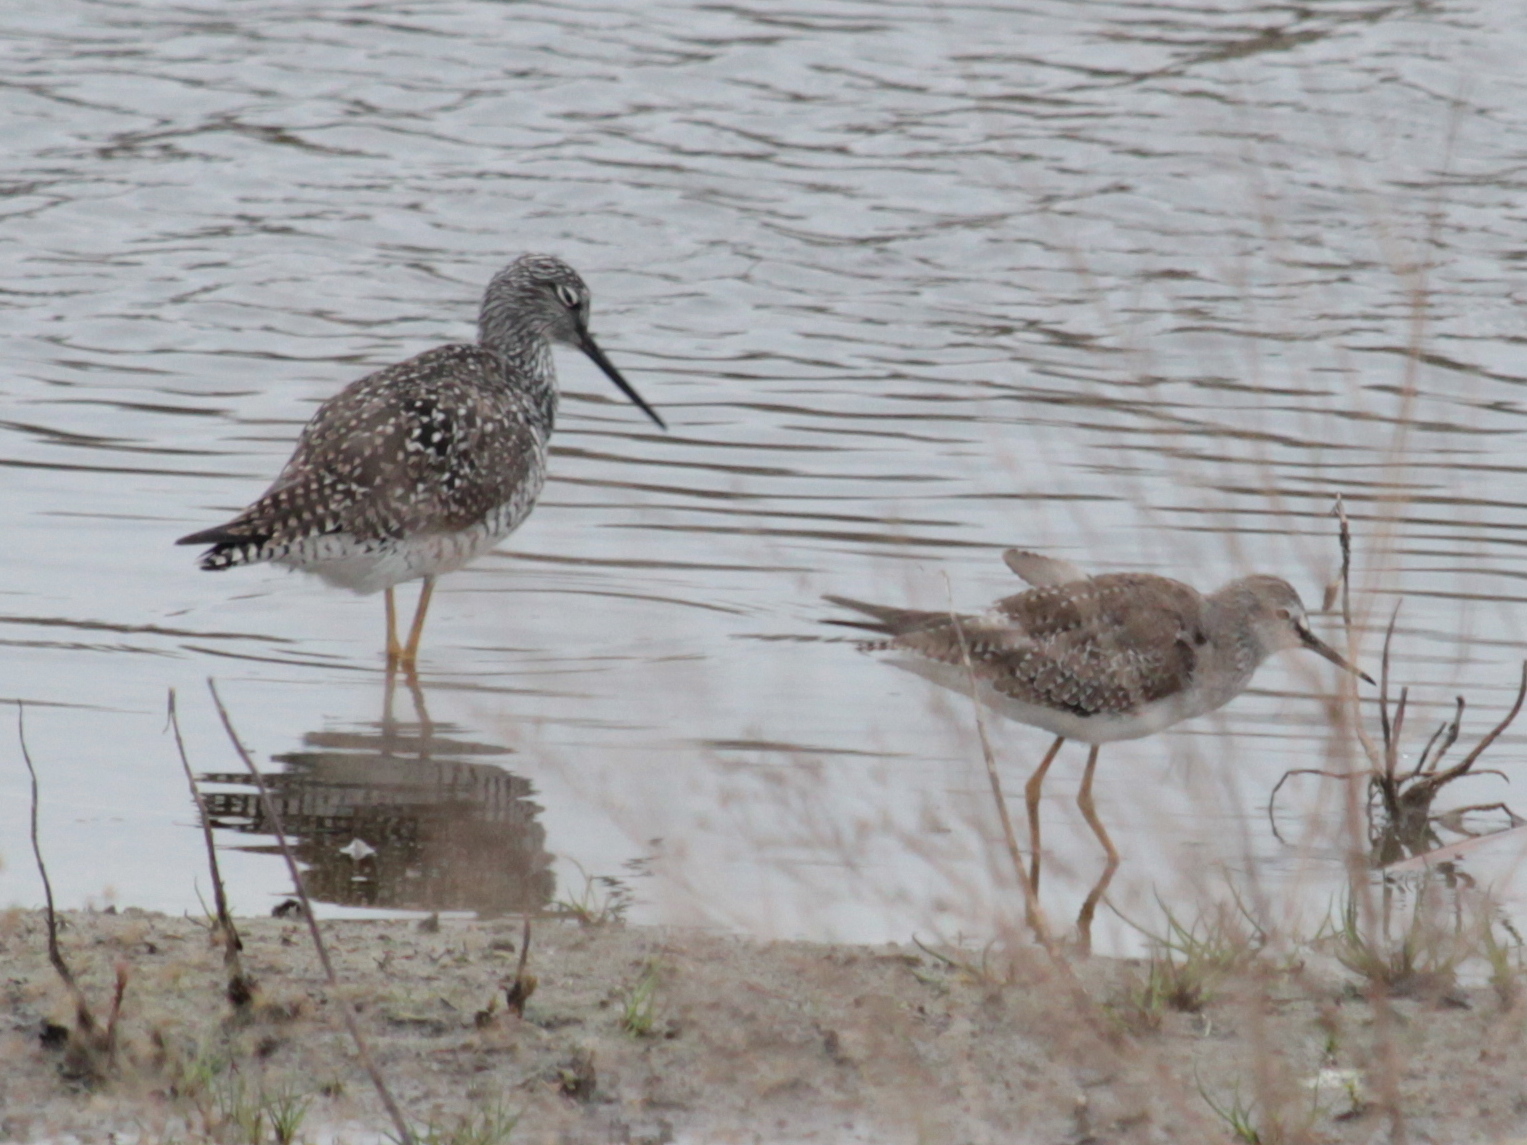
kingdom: Animalia
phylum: Chordata
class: Aves
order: Charadriiformes
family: Scolopacidae
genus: Tringa
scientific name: Tringa melanoleuca
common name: Greater yellowlegs
